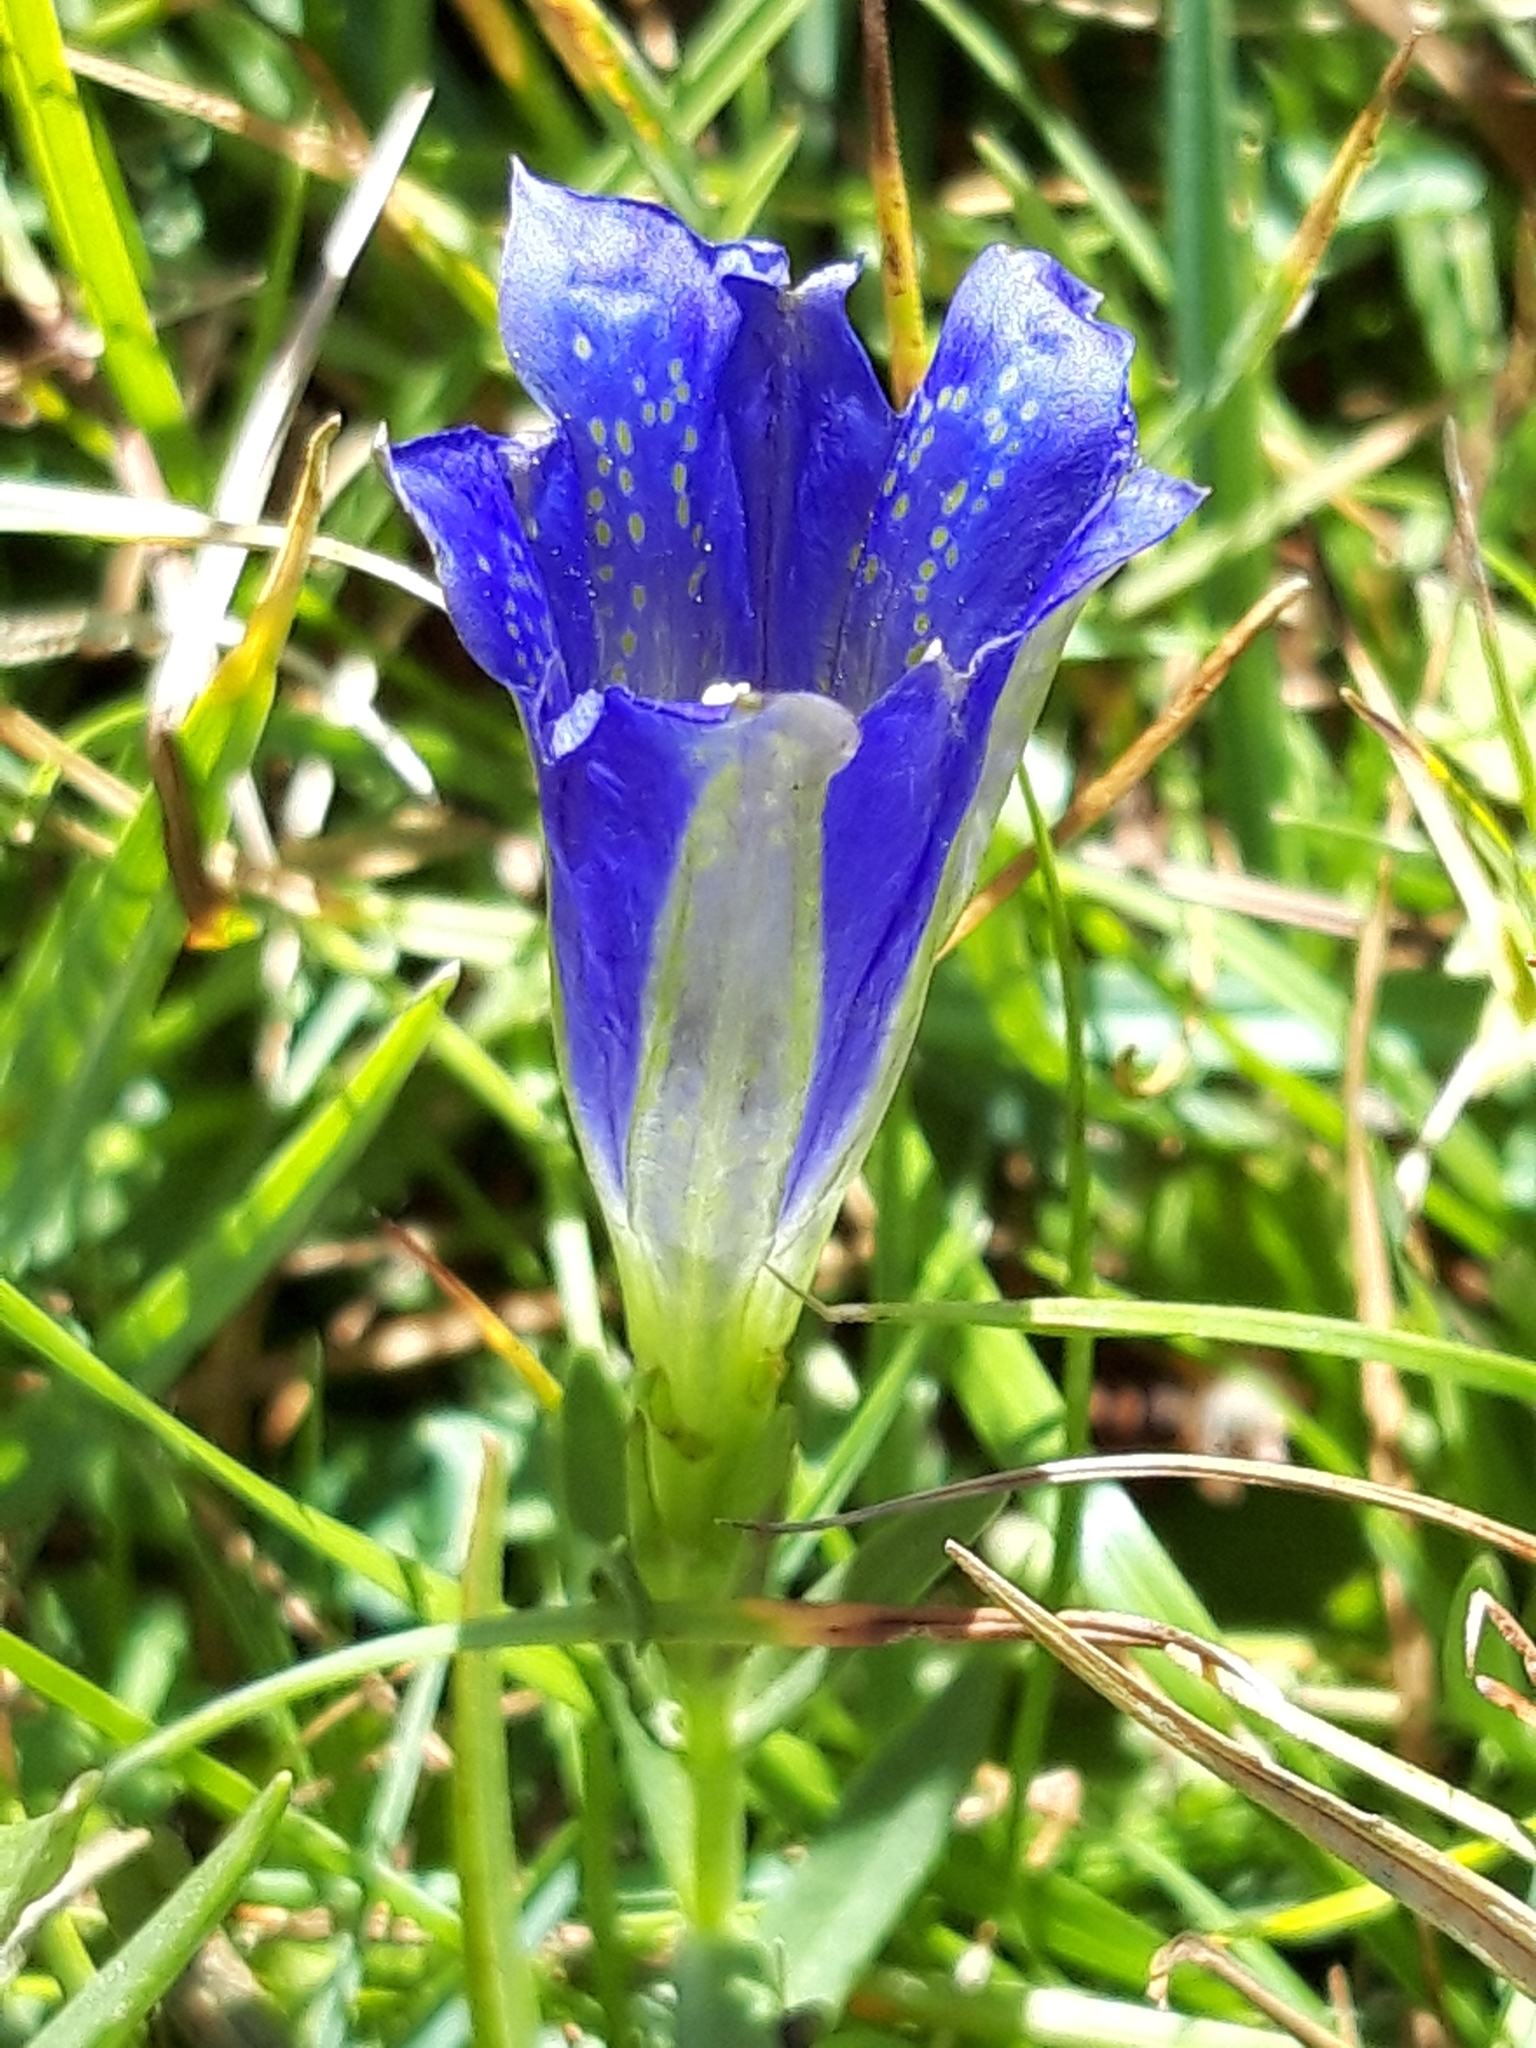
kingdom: Plantae
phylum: Tracheophyta
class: Magnoliopsida
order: Gentianales
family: Gentianaceae
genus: Gentiana
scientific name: Gentiana pneumonanthe
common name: Marsh gentian
